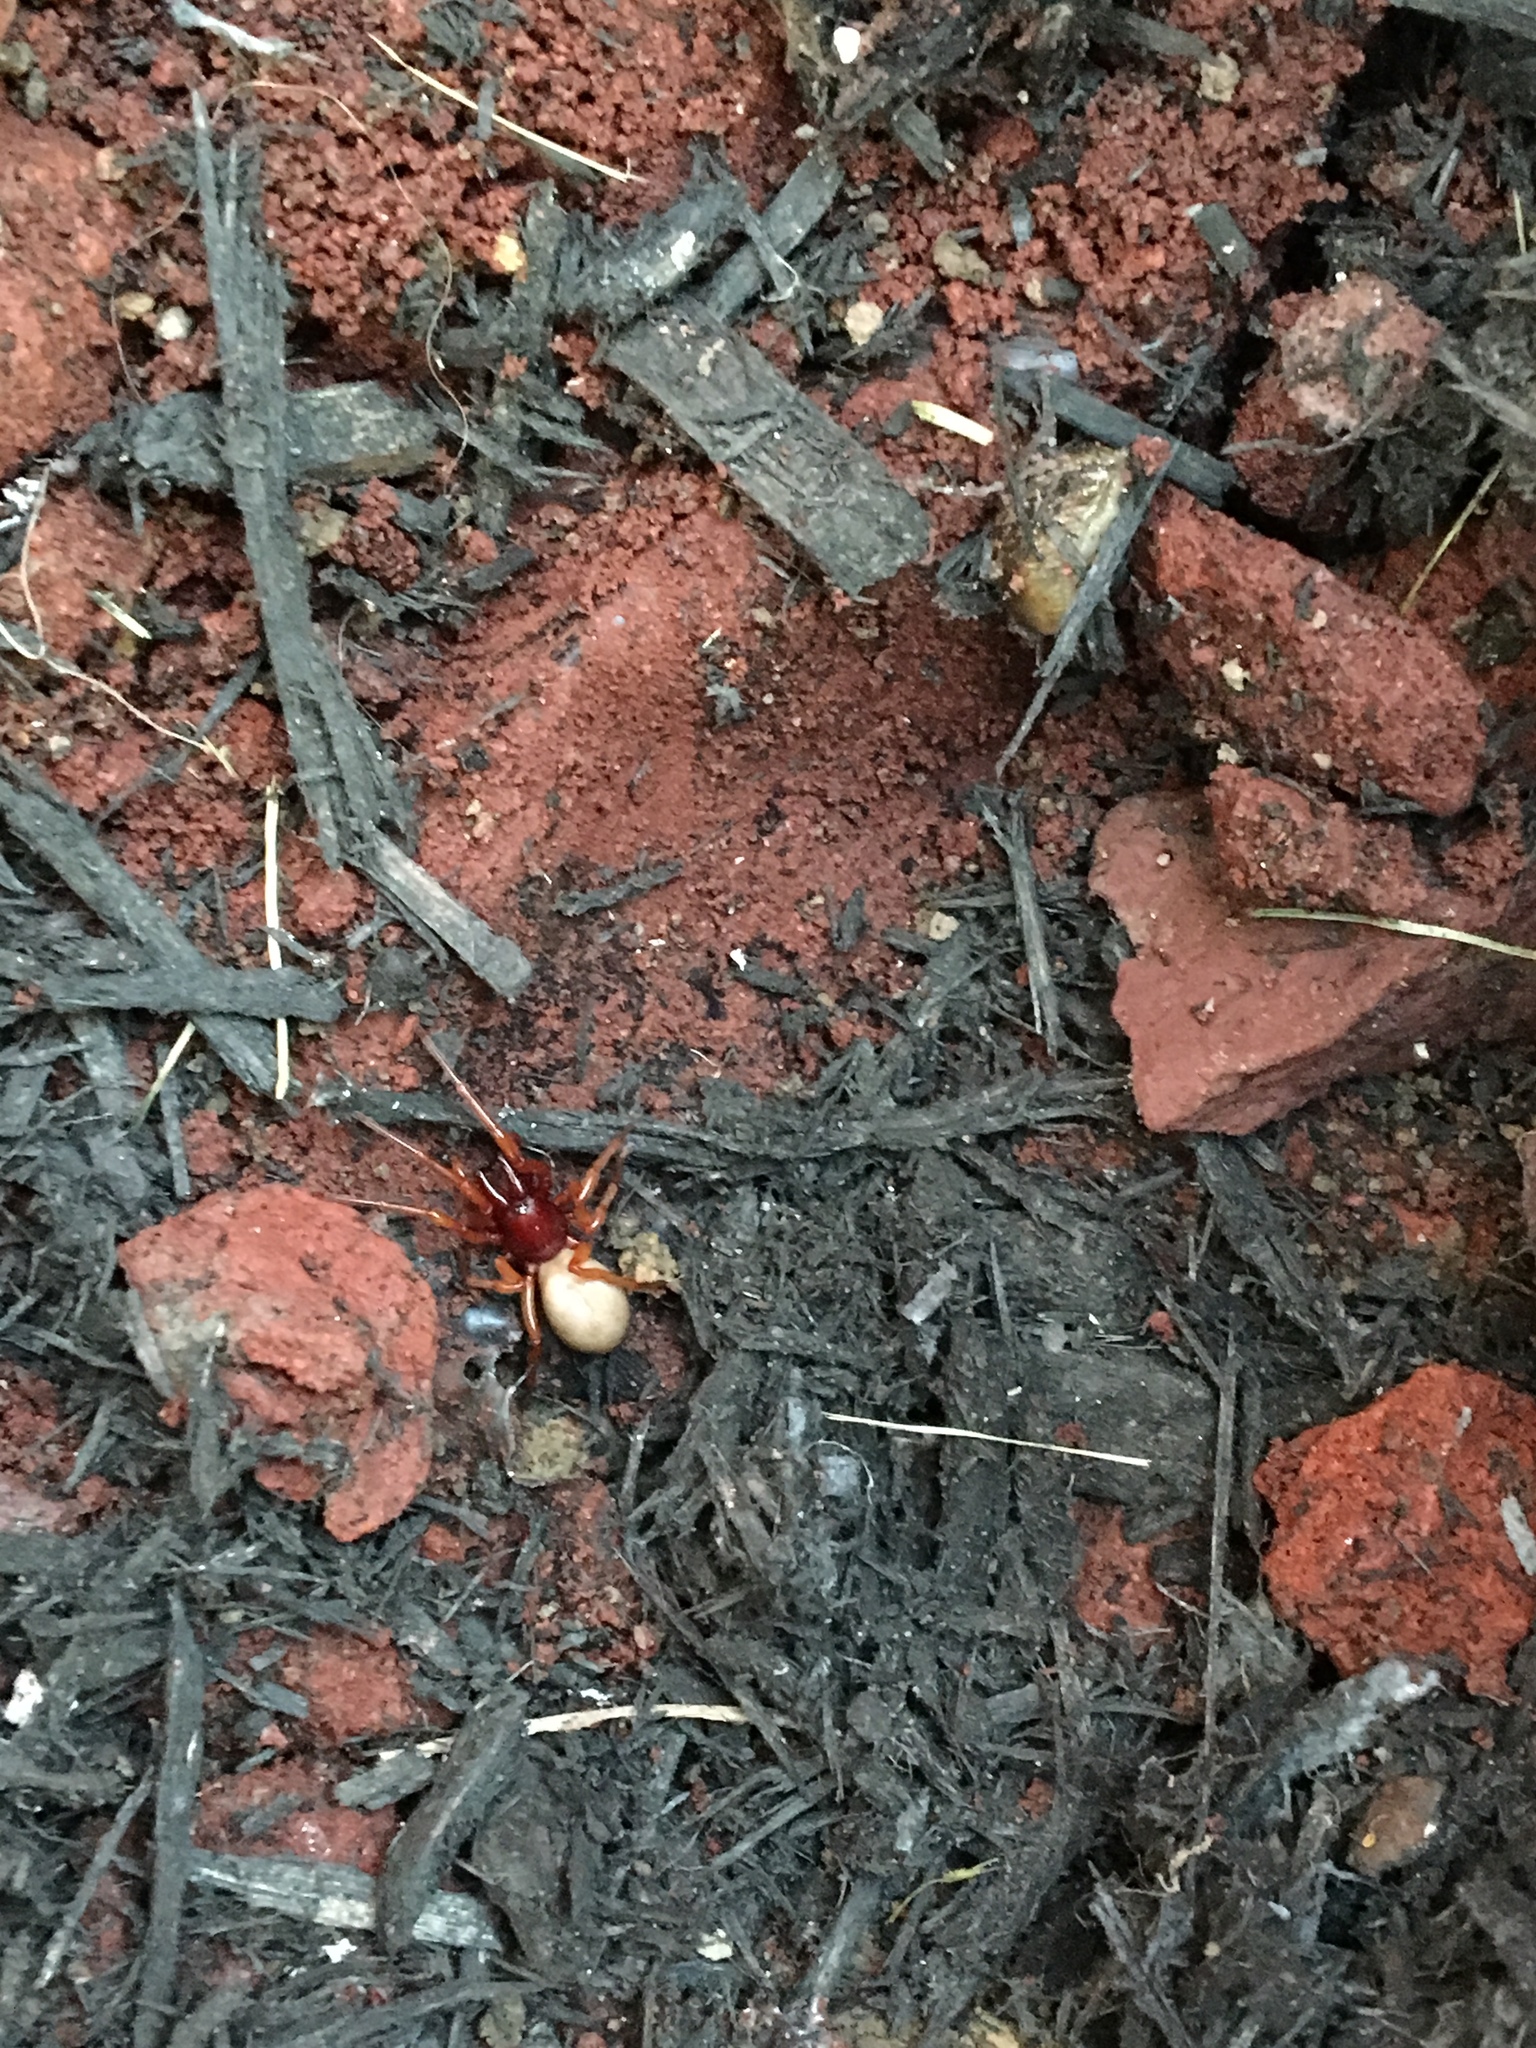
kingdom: Animalia
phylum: Arthropoda
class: Arachnida
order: Araneae
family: Dysderidae
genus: Dysdera
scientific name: Dysdera crocata
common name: Woodlouse spider
